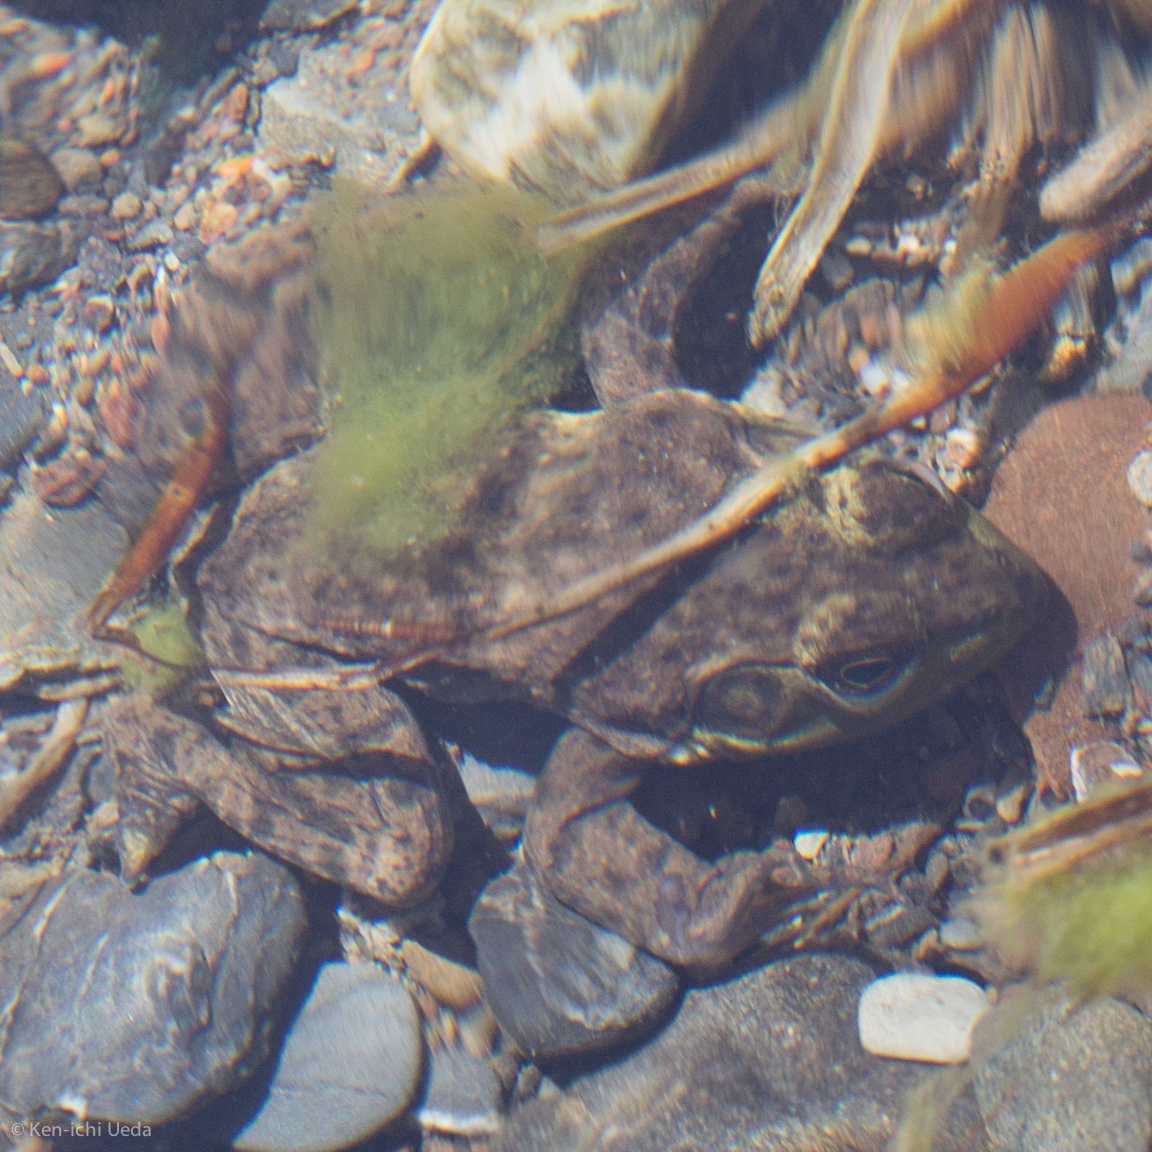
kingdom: Animalia
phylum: Chordata
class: Amphibia
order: Anura
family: Ranidae
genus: Lithobates
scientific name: Lithobates catesbeianus
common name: American bullfrog
